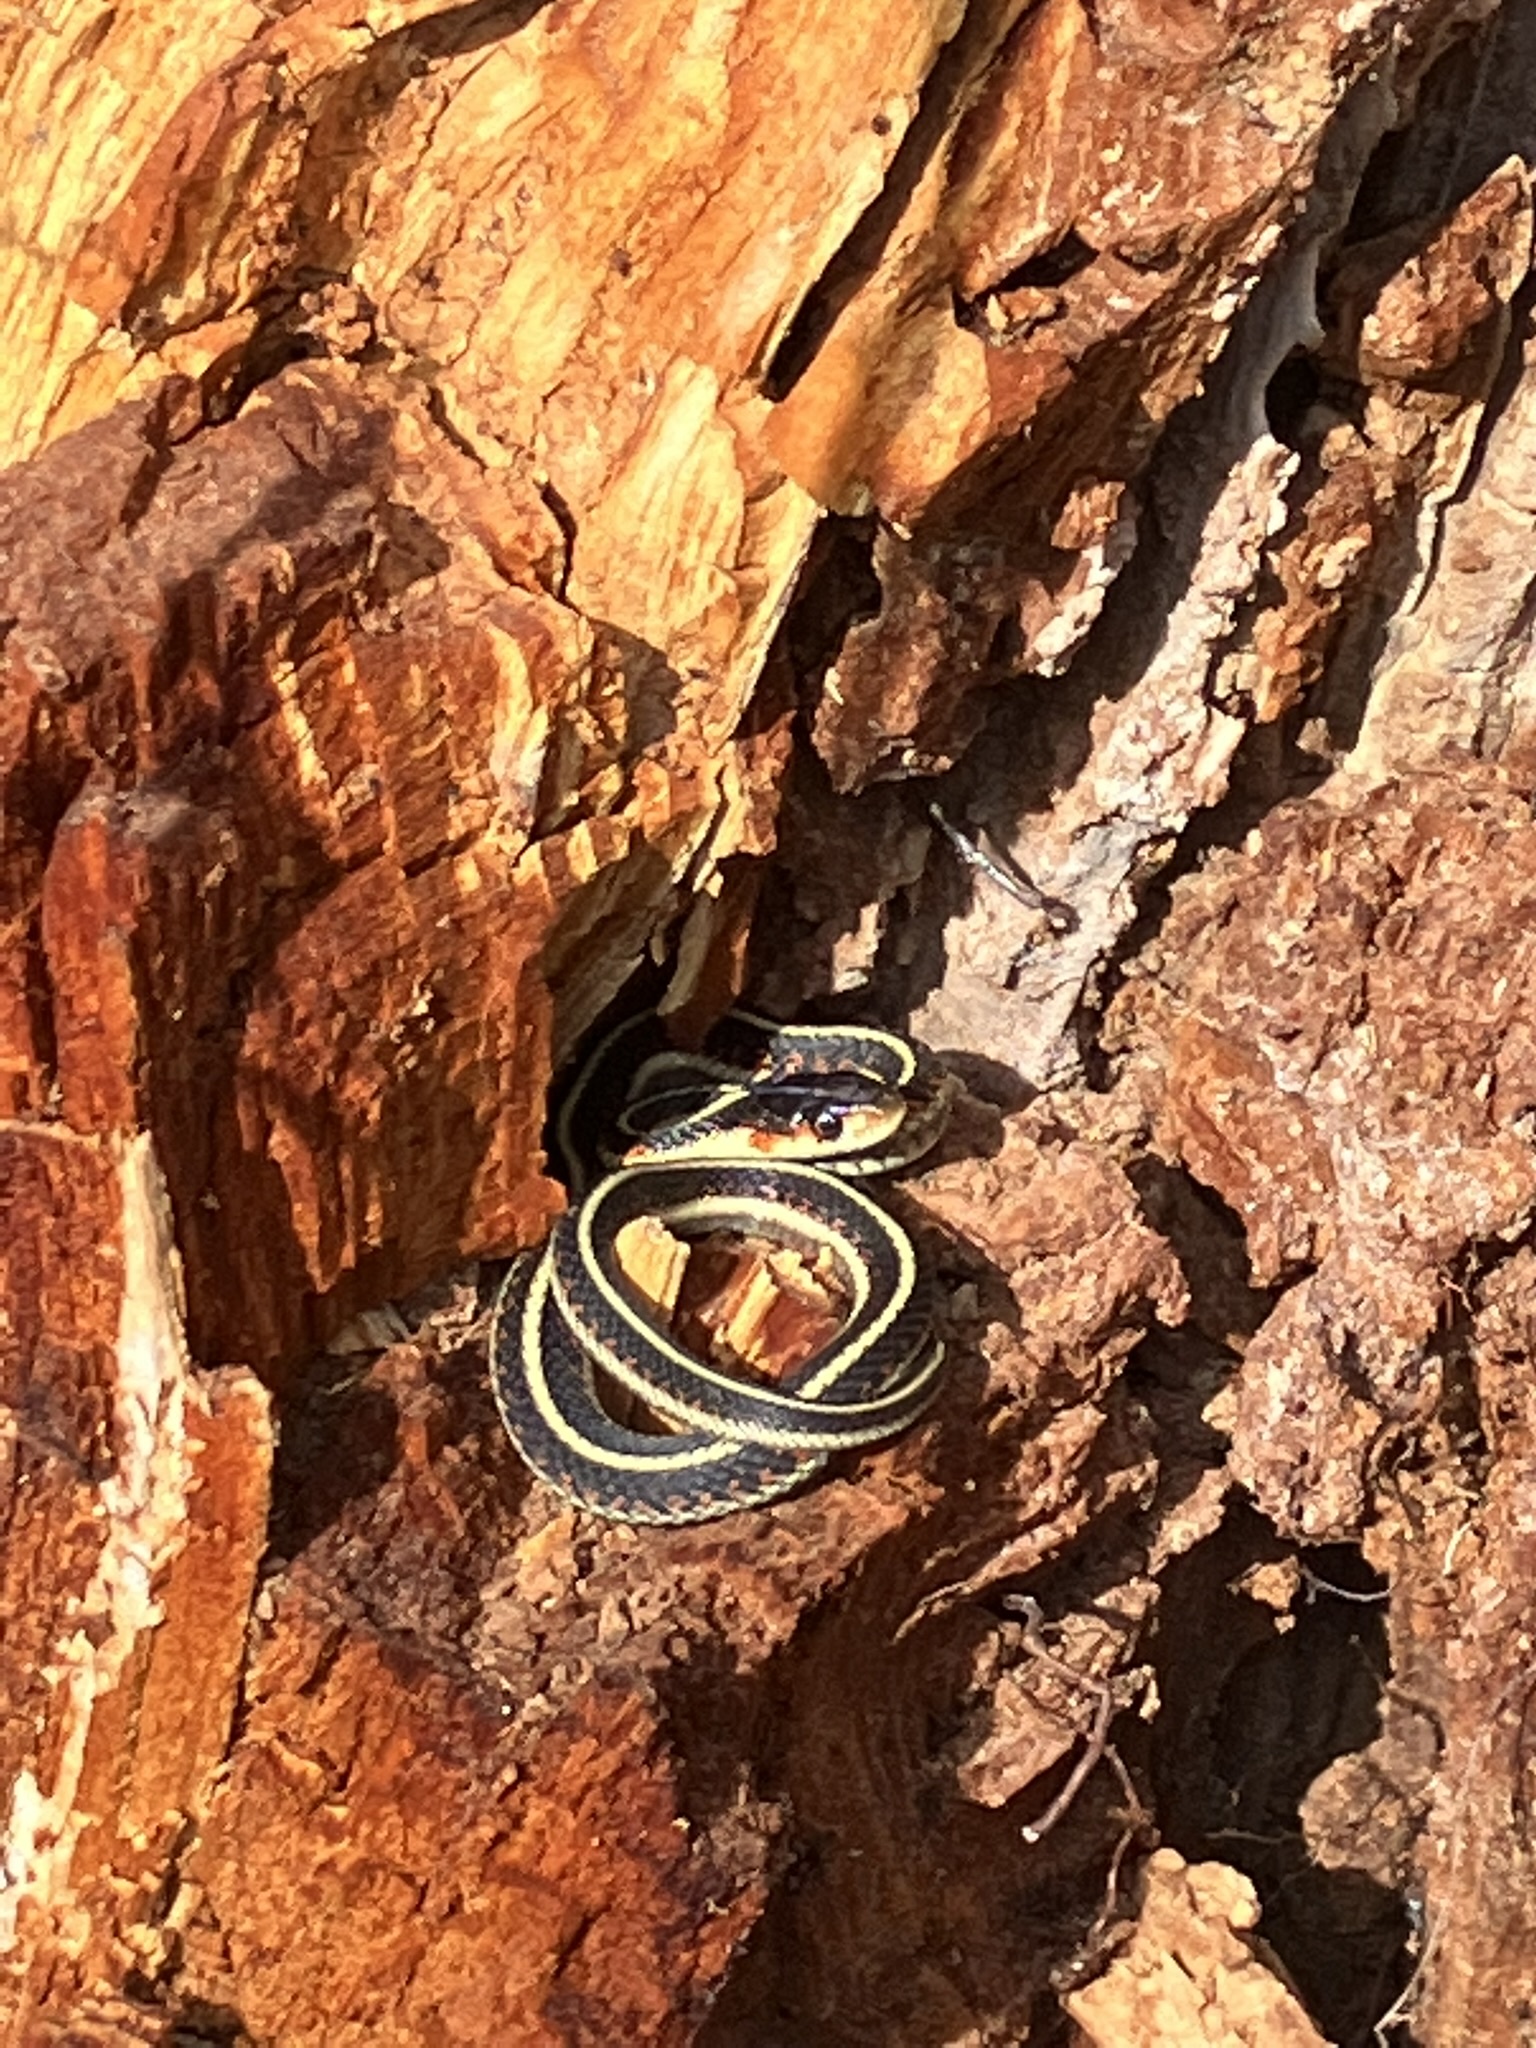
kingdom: Animalia
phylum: Chordata
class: Squamata
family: Colubridae
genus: Thamnophis
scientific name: Thamnophis sirtalis
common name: Common garter snake
